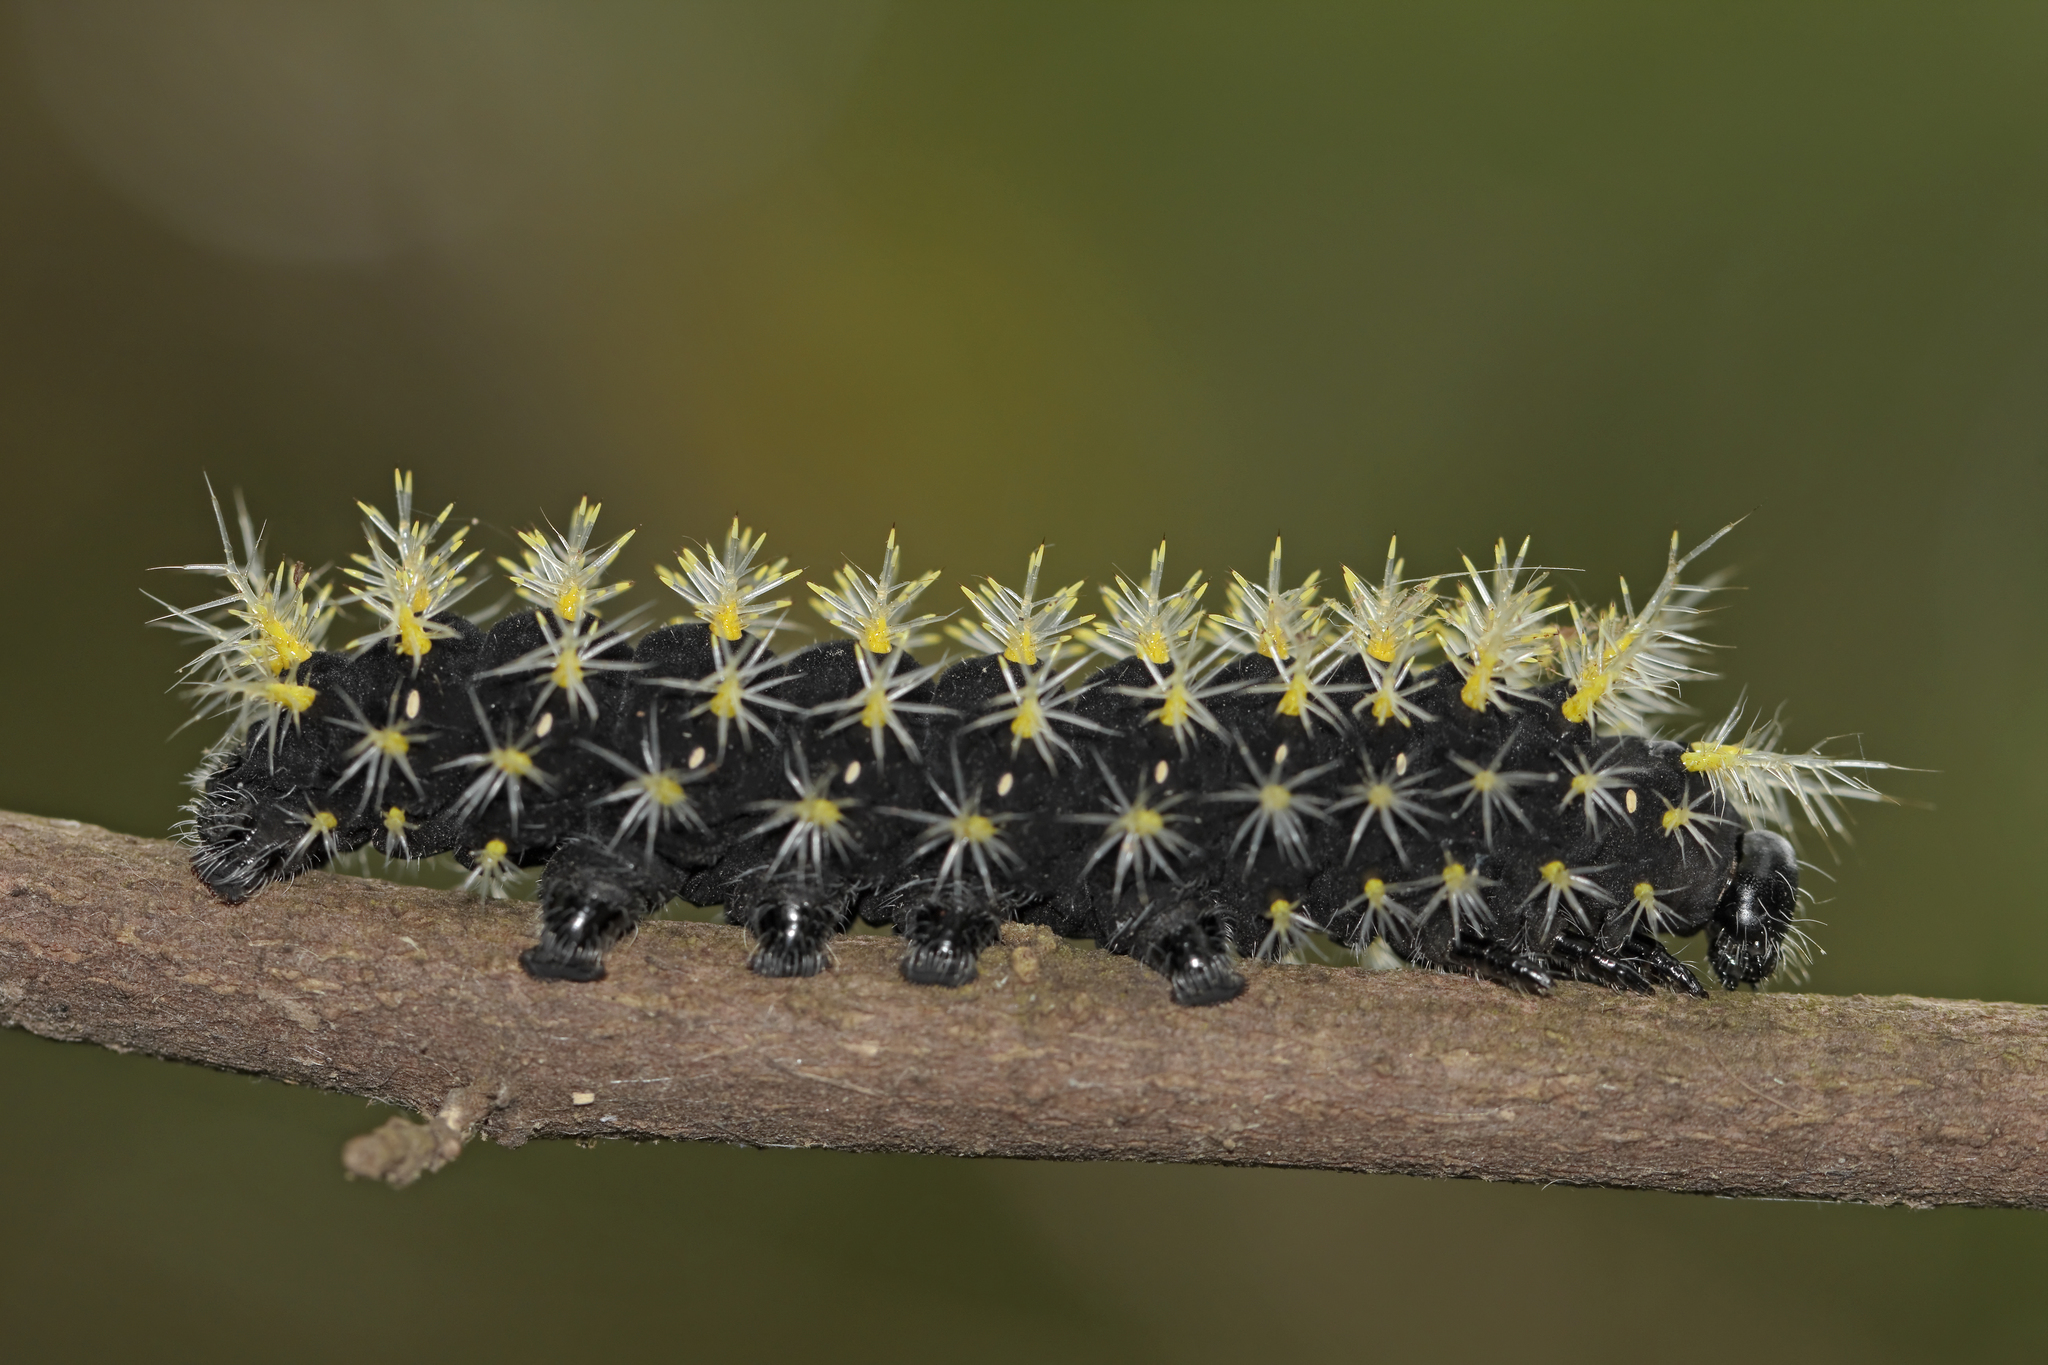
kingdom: Animalia
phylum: Arthropoda
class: Insecta
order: Lepidoptera
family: Saturniidae
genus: Leucanella
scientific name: Leucanella viridescens
